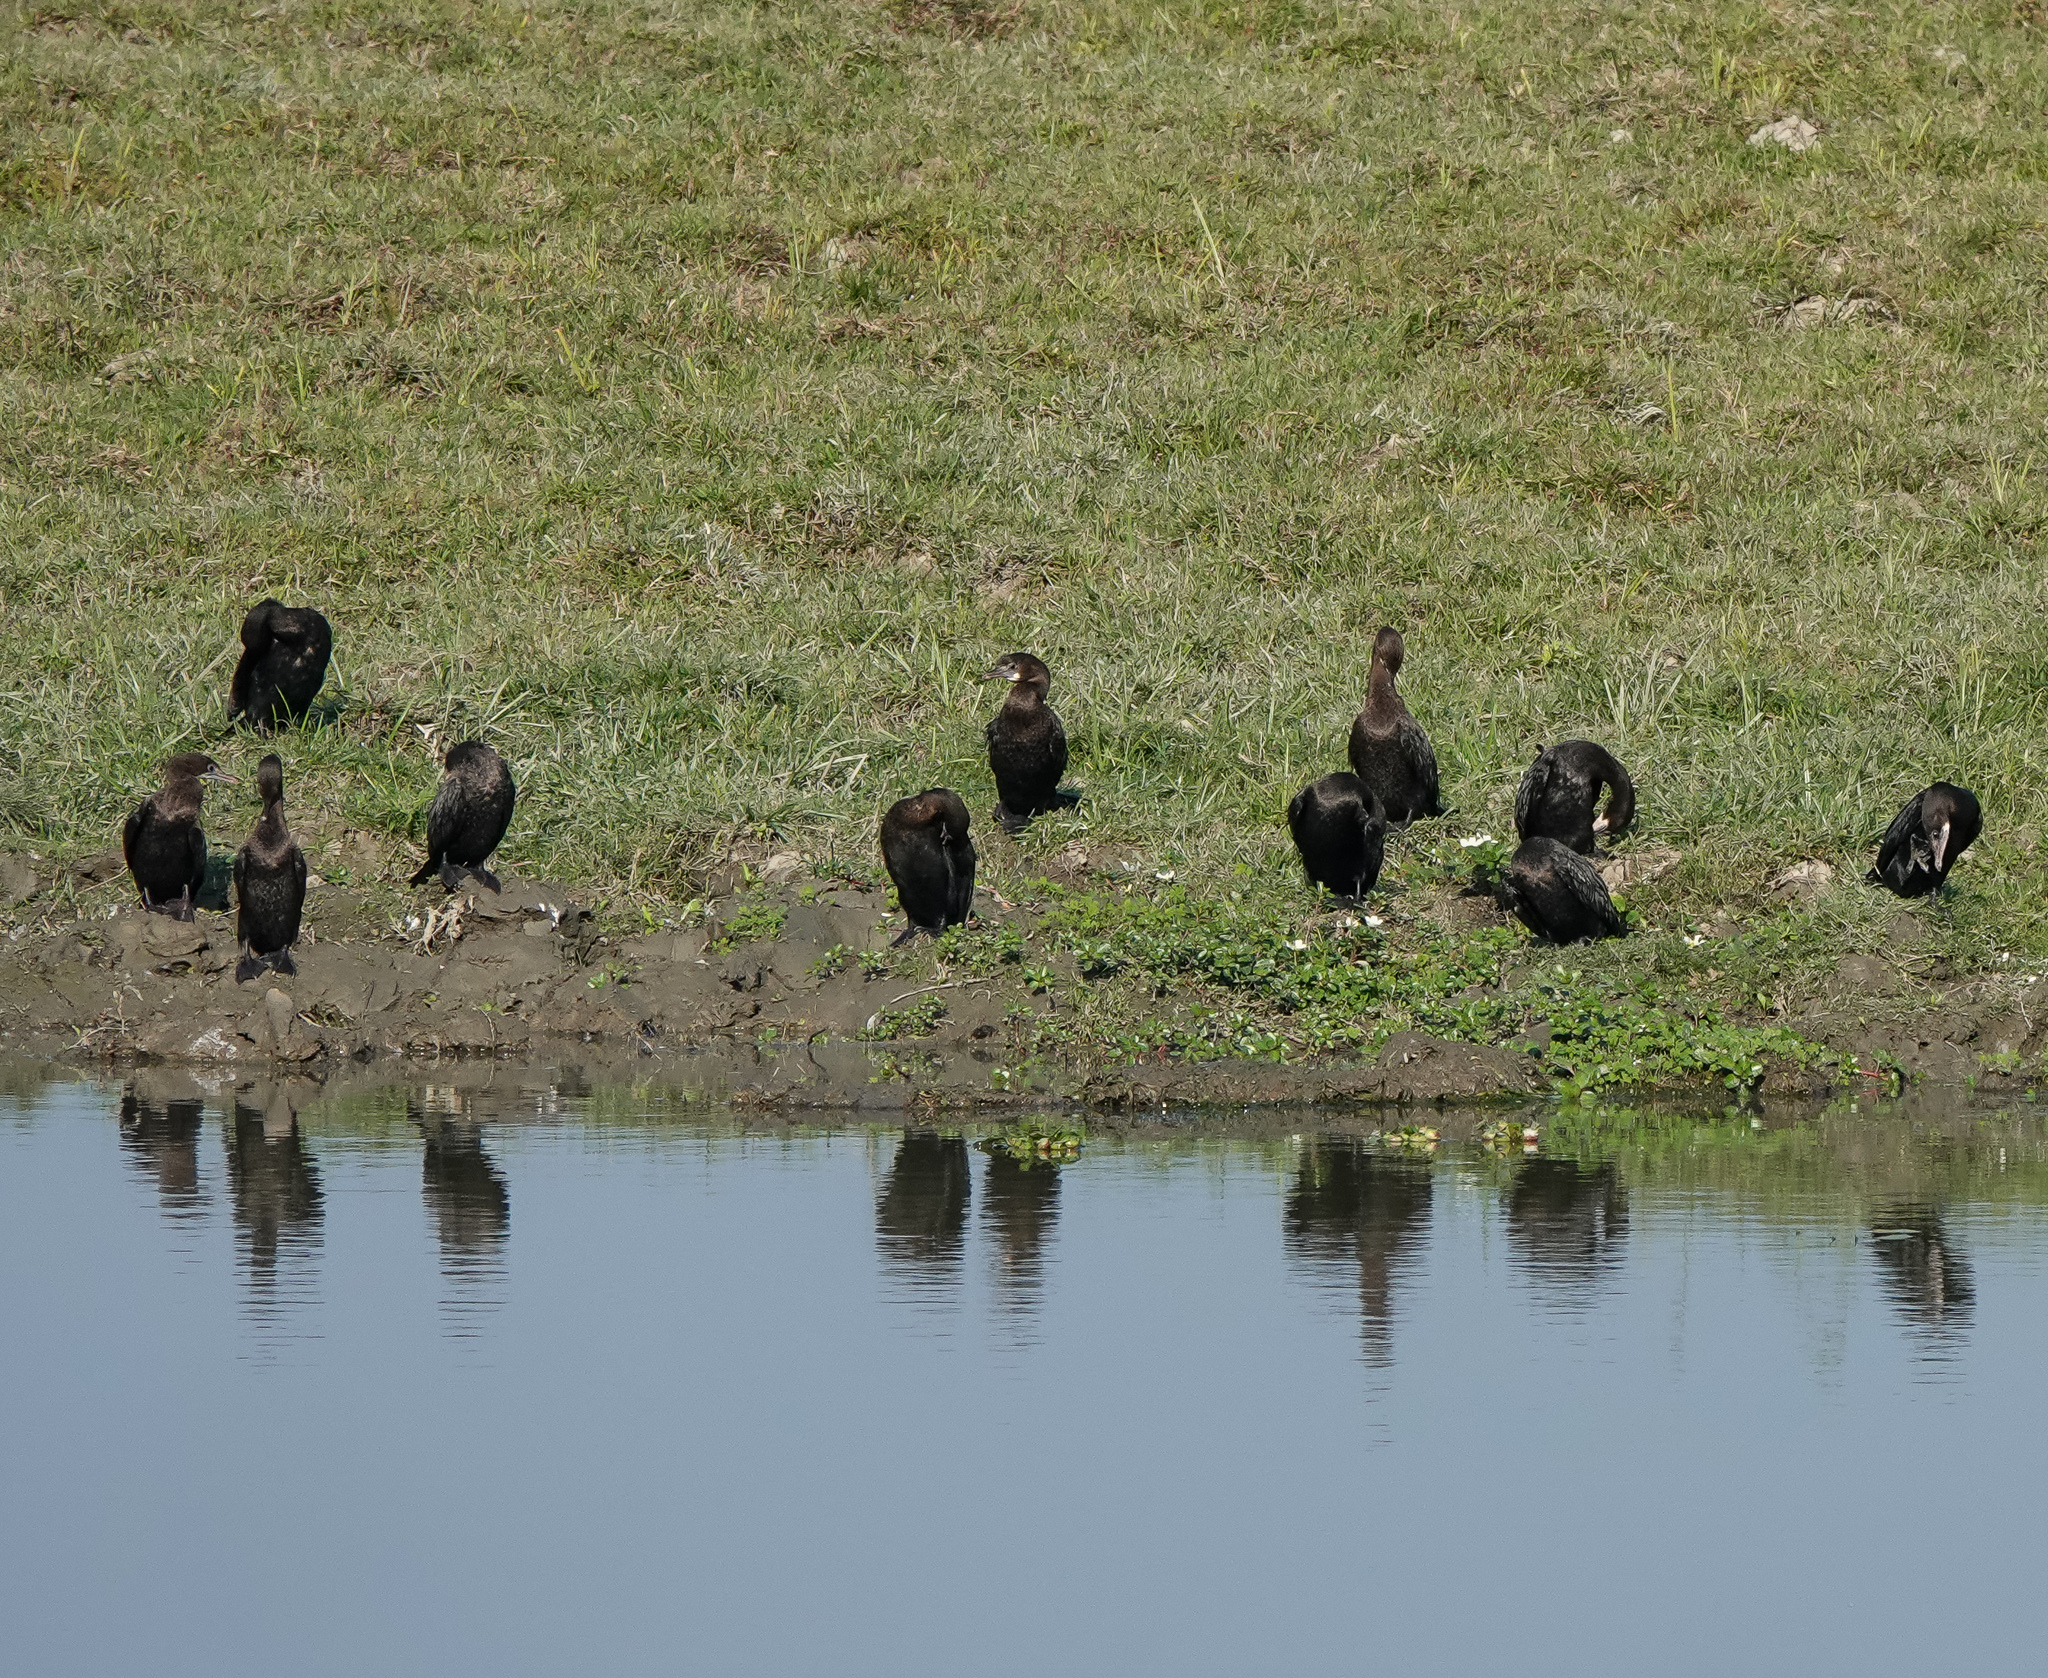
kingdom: Animalia
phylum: Chordata
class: Aves
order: Suliformes
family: Phalacrocoracidae
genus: Microcarbo
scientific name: Microcarbo niger
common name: Little cormorant
